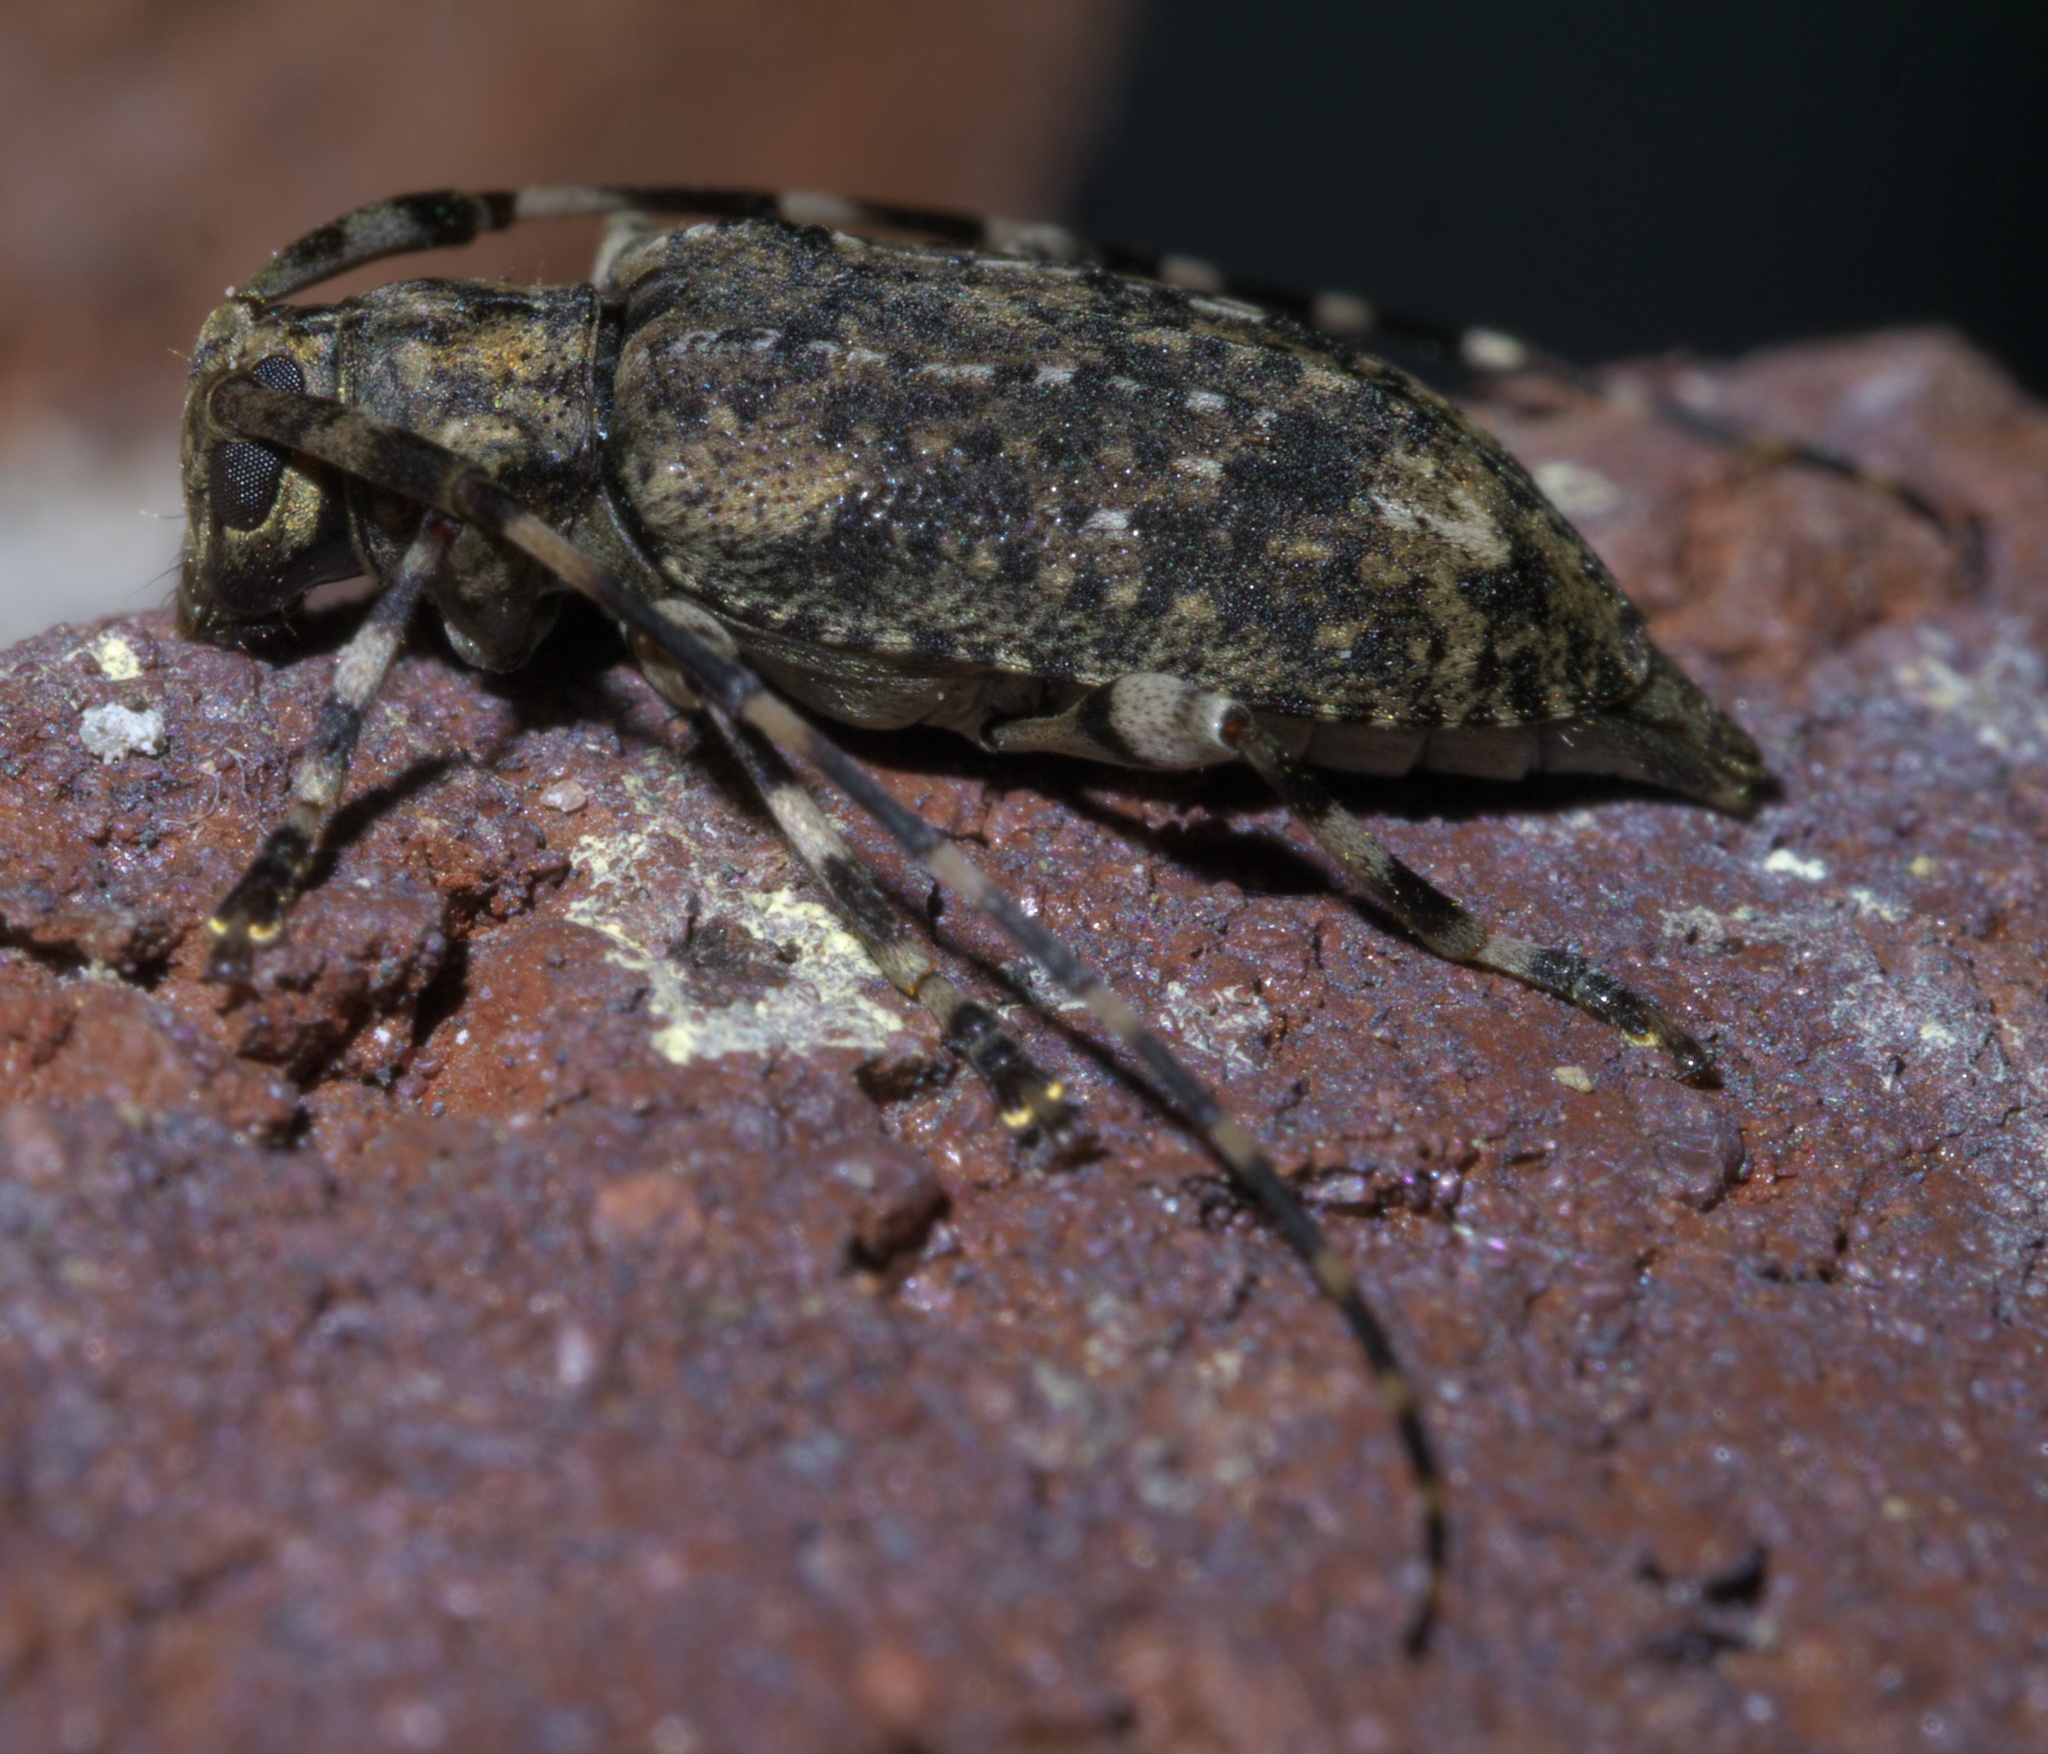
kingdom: Animalia
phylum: Arthropoda
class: Insecta
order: Coleoptera
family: Cerambycidae
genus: Astyleiopus
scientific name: Astyleiopus variegatus
